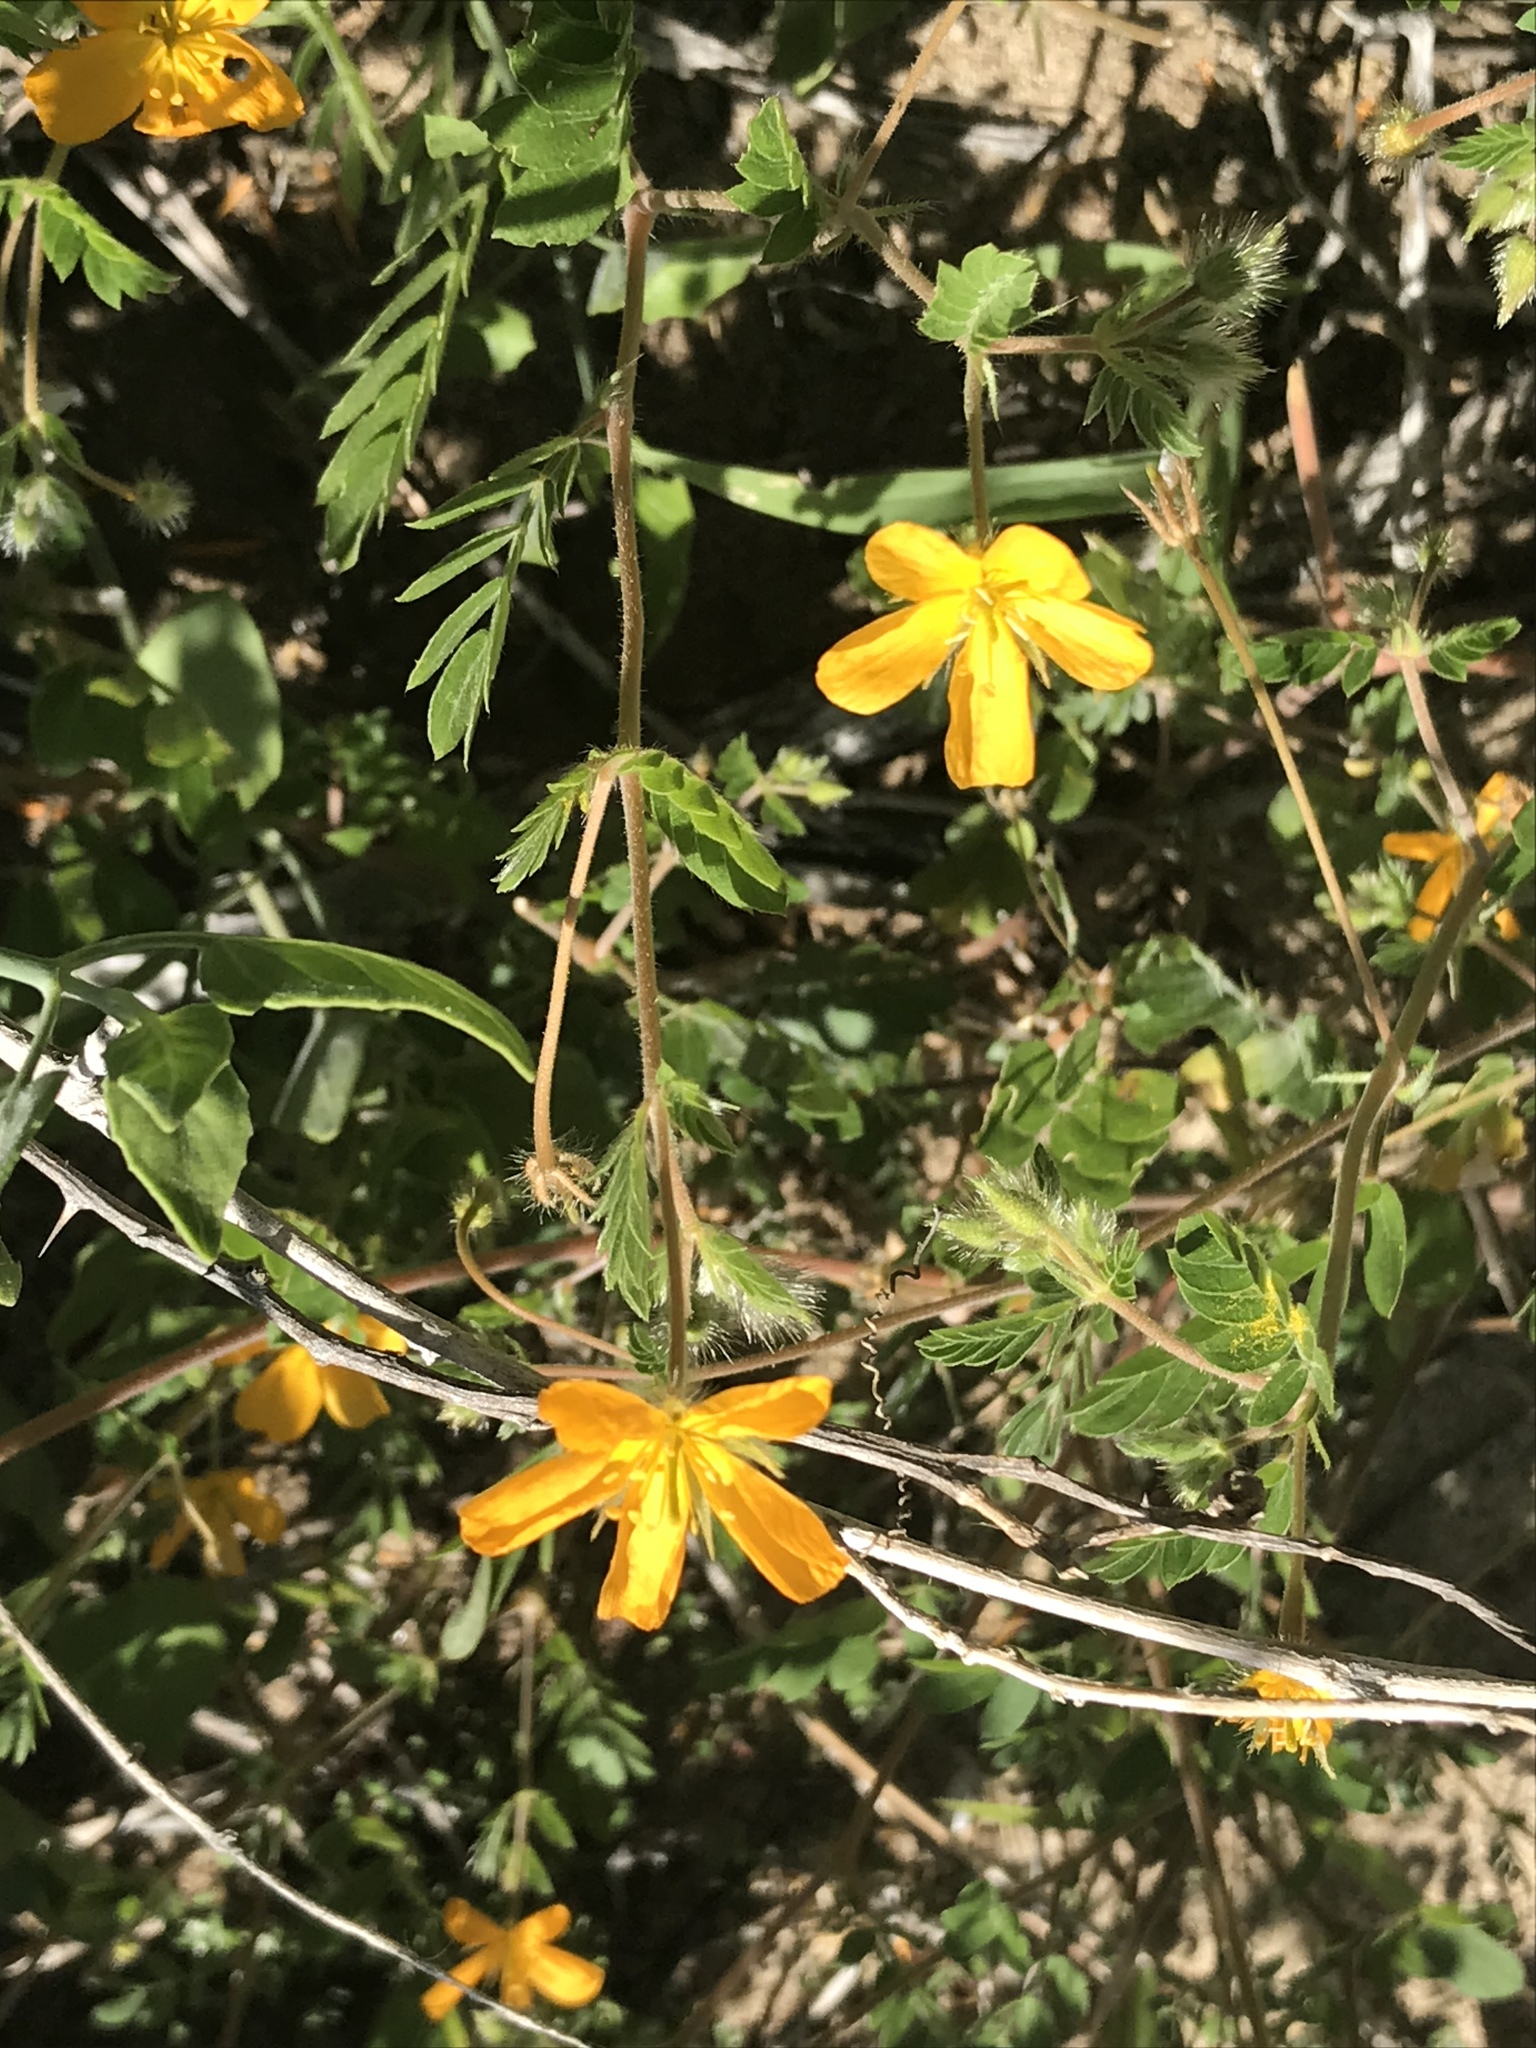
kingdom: Plantae
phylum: Tracheophyta
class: Magnoliopsida
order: Zygophyllales
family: Zygophyllaceae
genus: Kallstroemia
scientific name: Kallstroemia peninsularis
